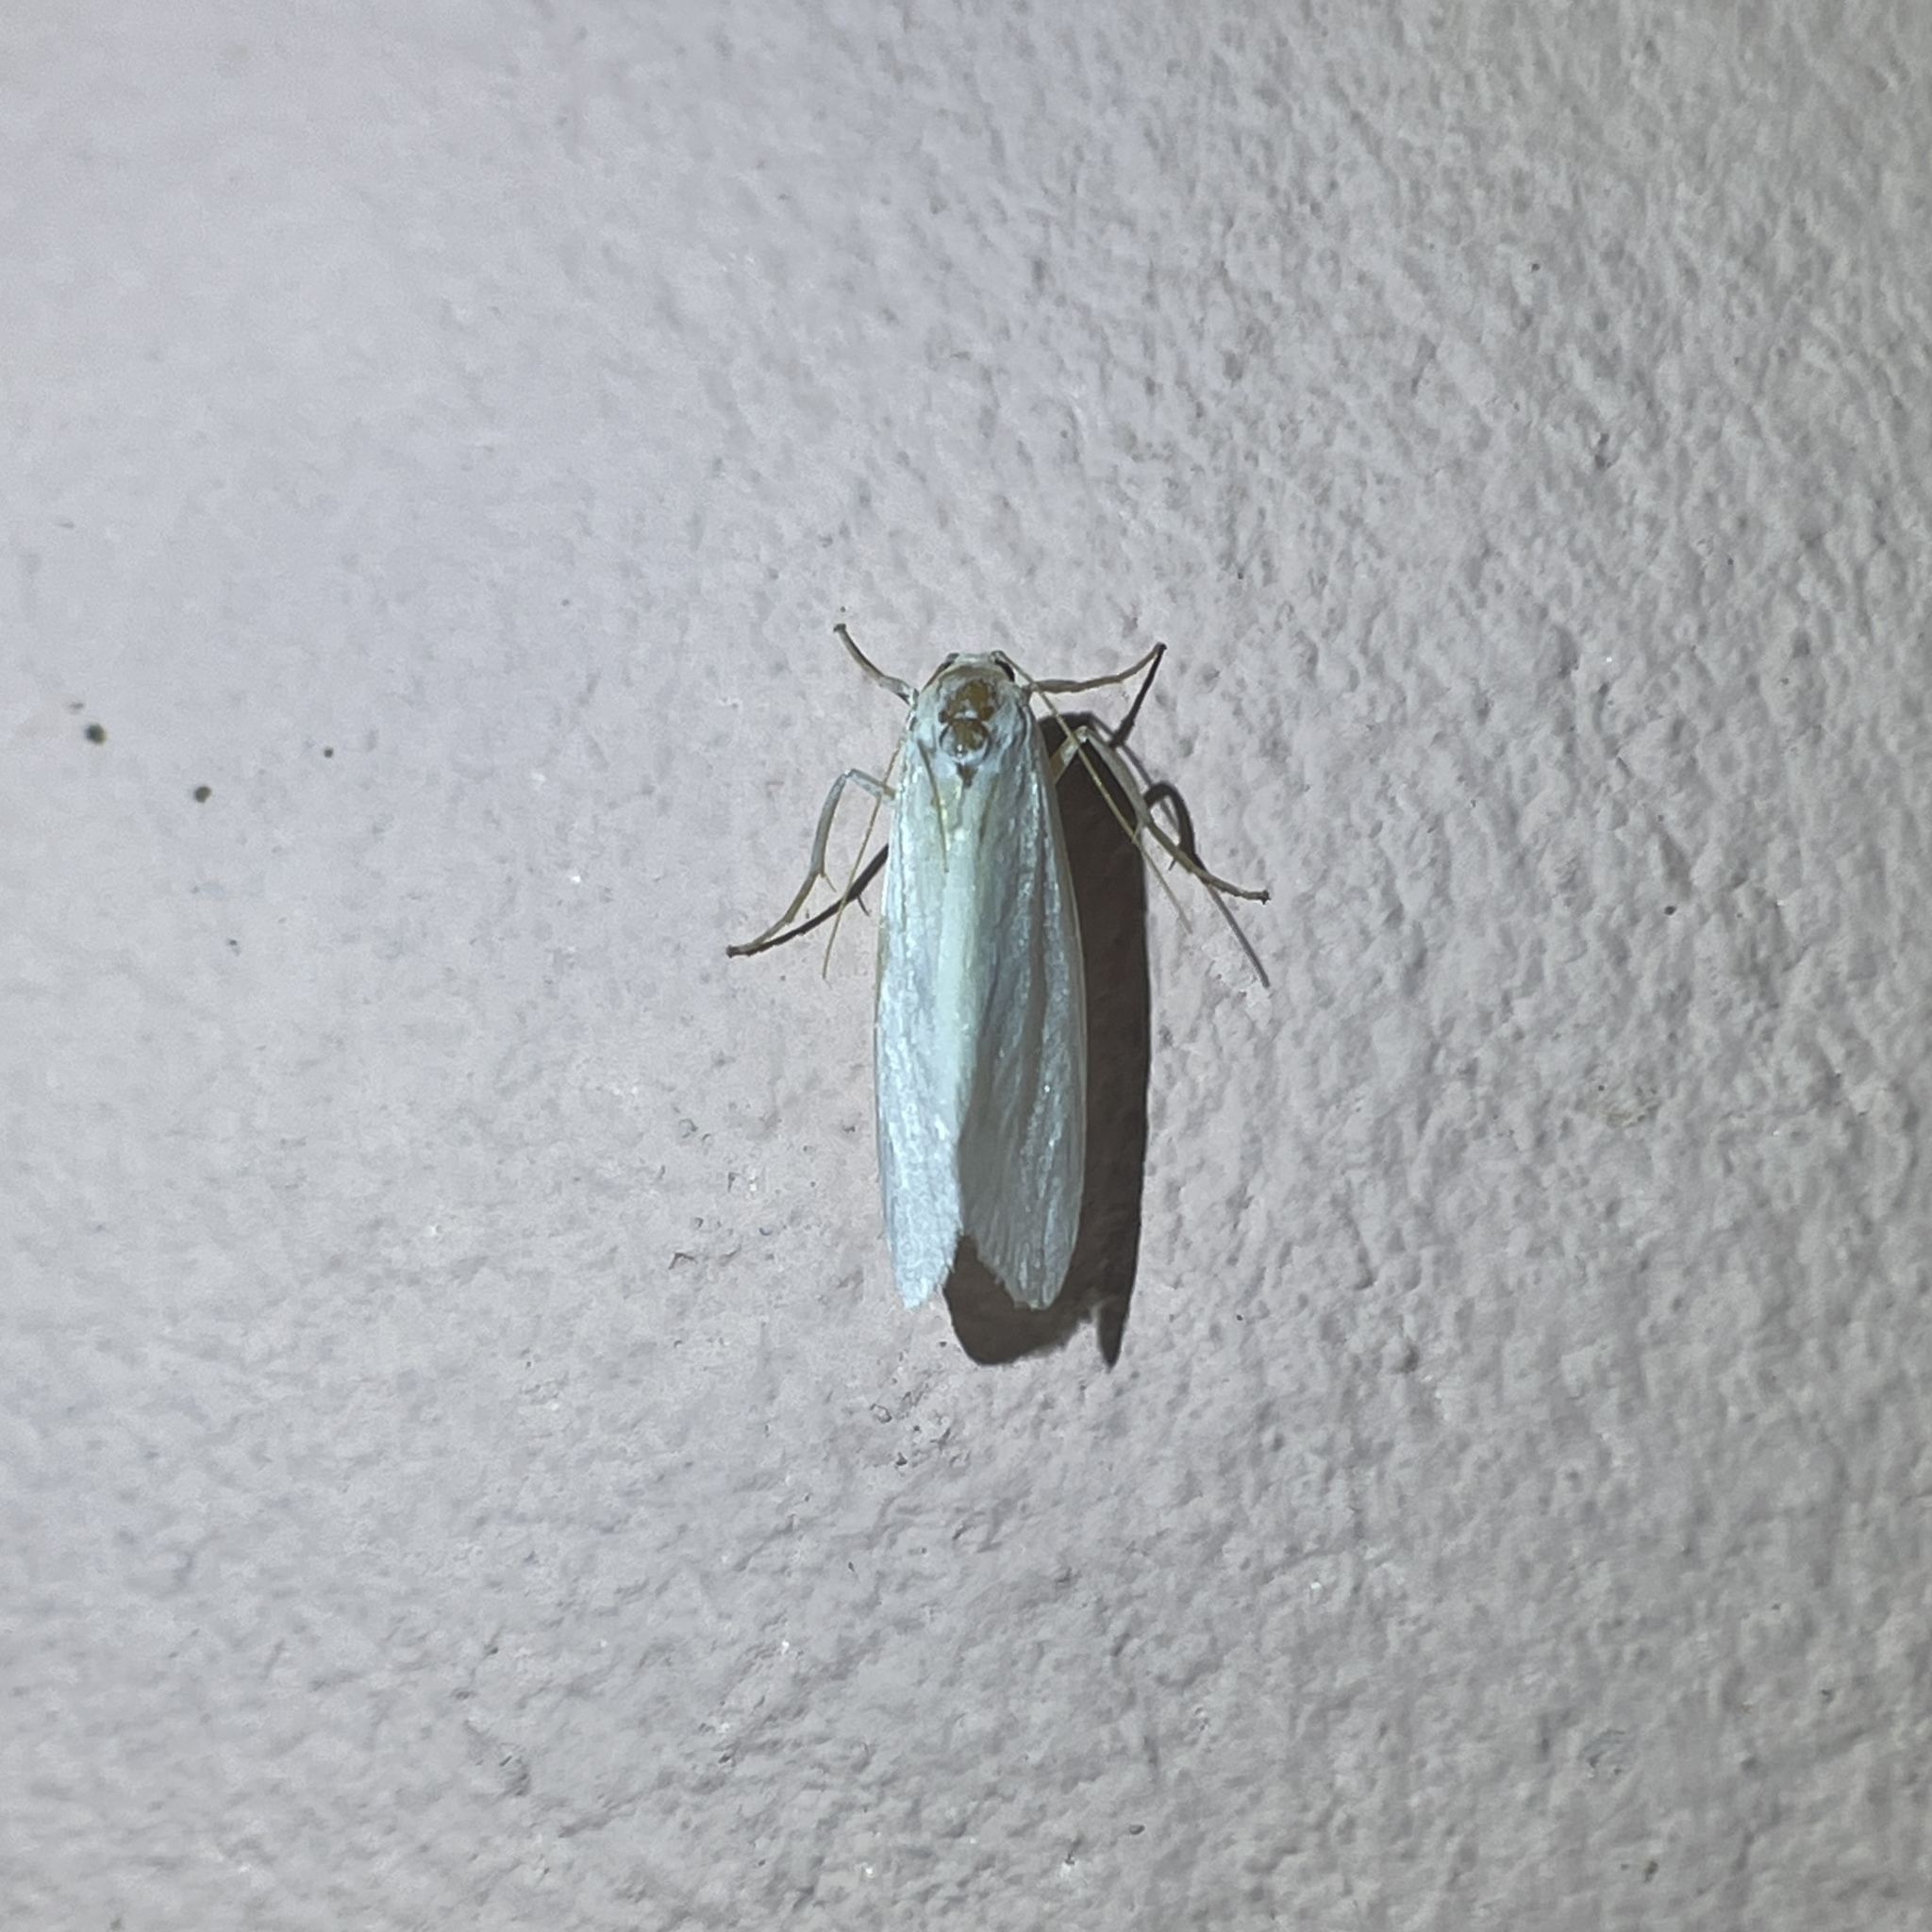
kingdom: Animalia
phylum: Arthropoda
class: Insecta
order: Lepidoptera
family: Erebidae
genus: Agylla
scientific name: Agylla argentifera
